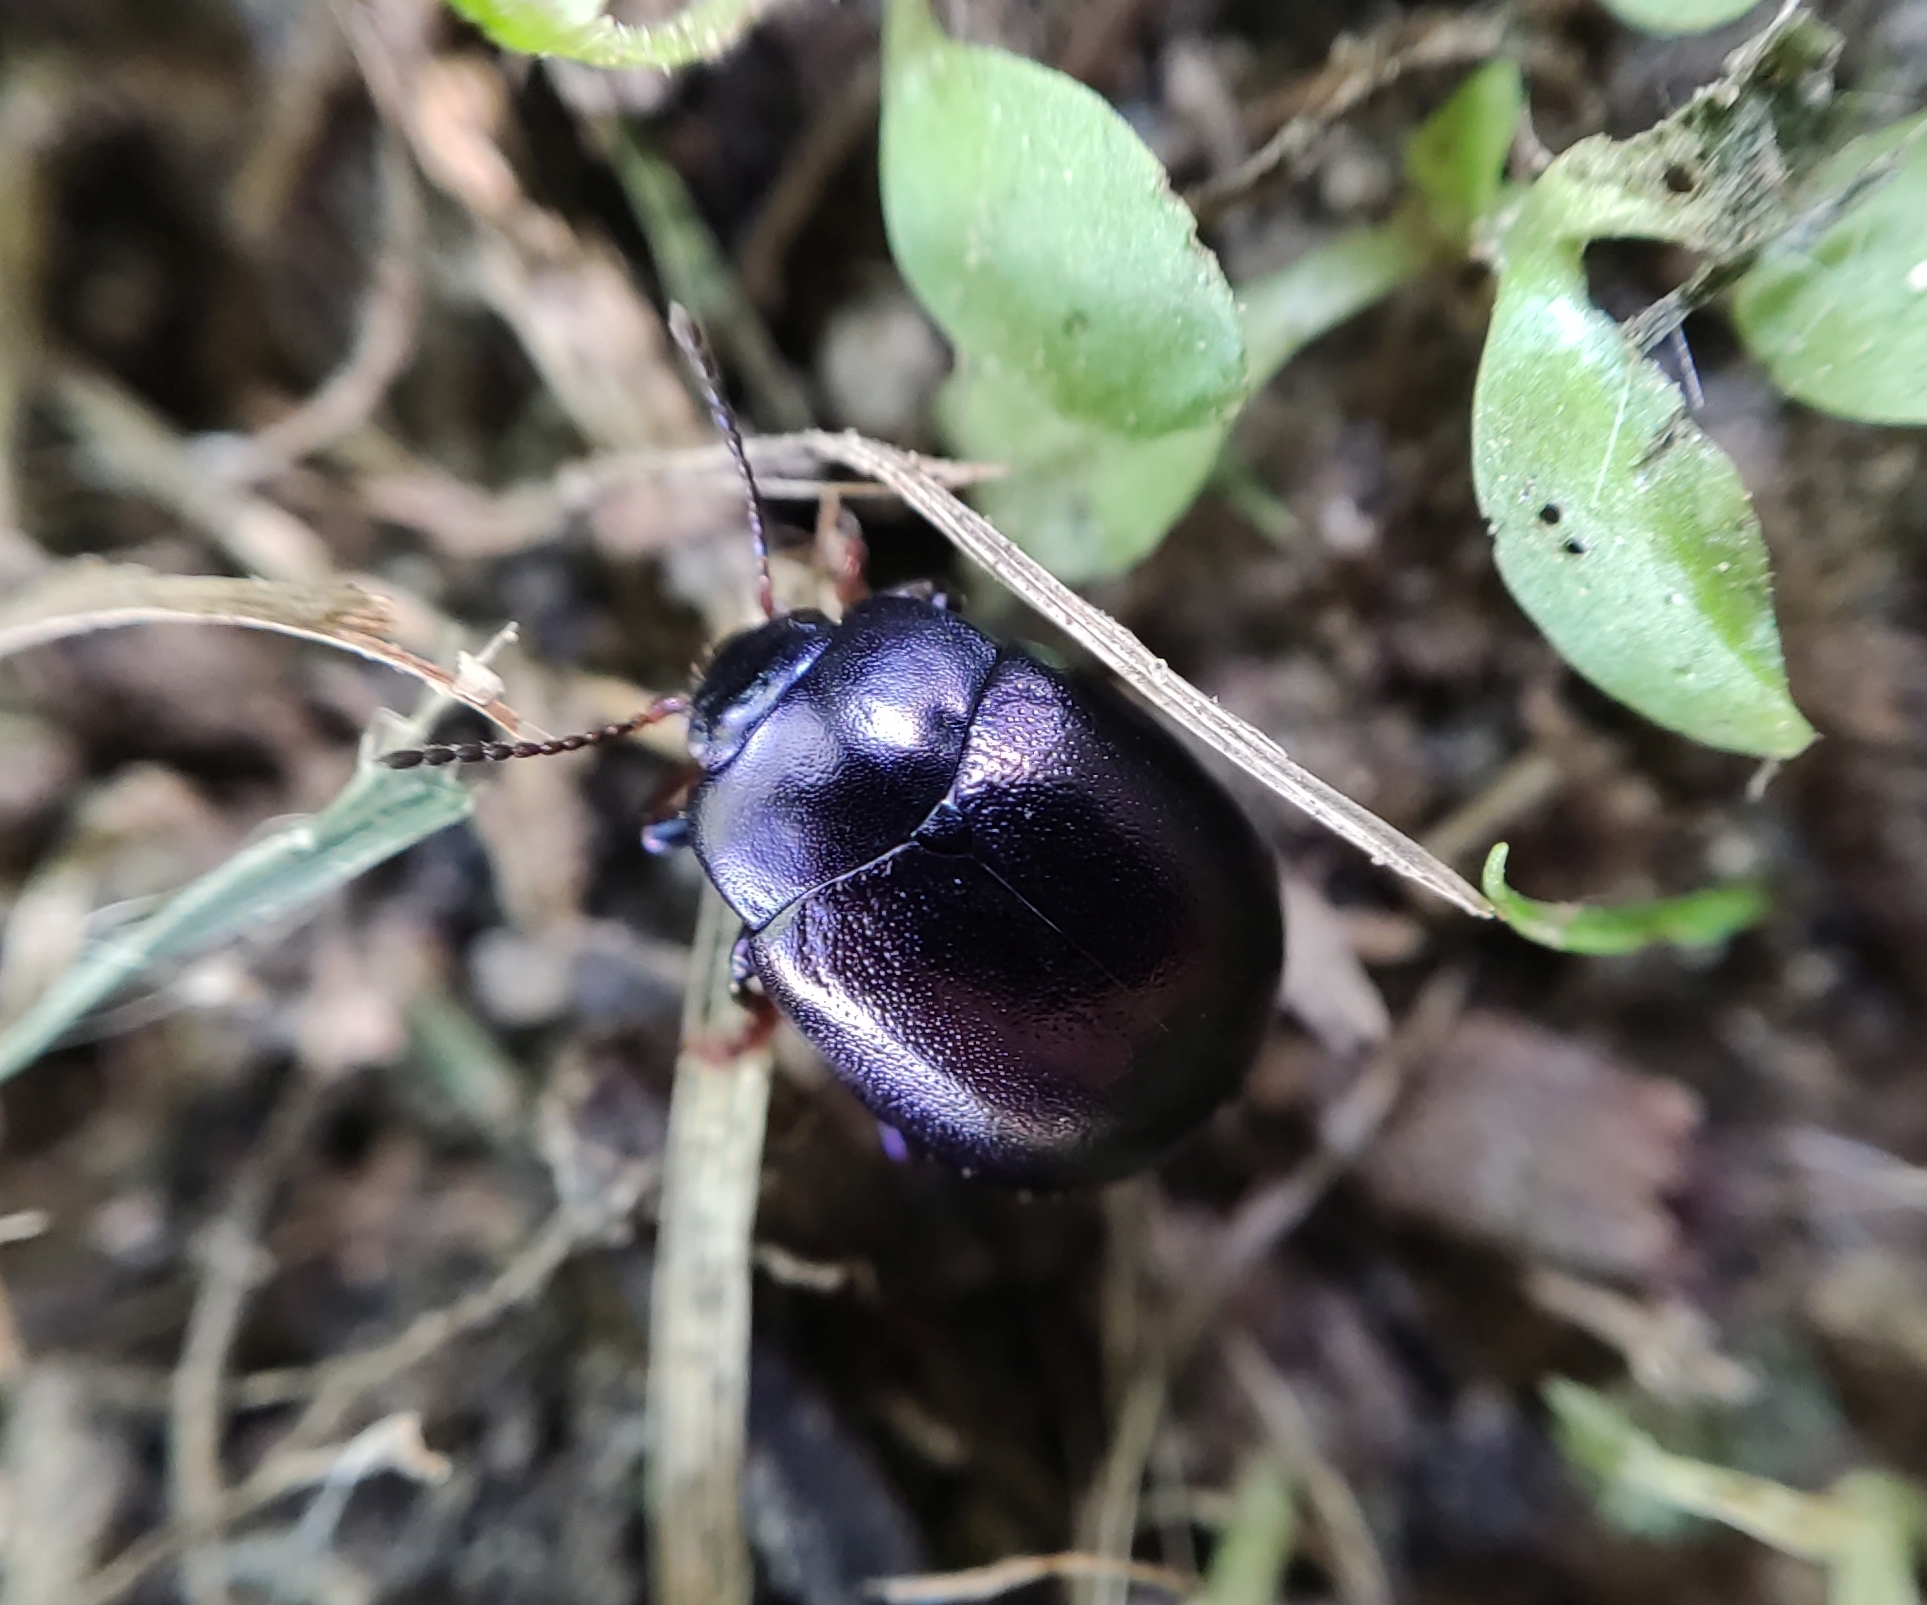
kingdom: Animalia
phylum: Arthropoda
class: Insecta
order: Coleoptera
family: Chrysomelidae
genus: Chrysolina
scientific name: Chrysolina sturmi
